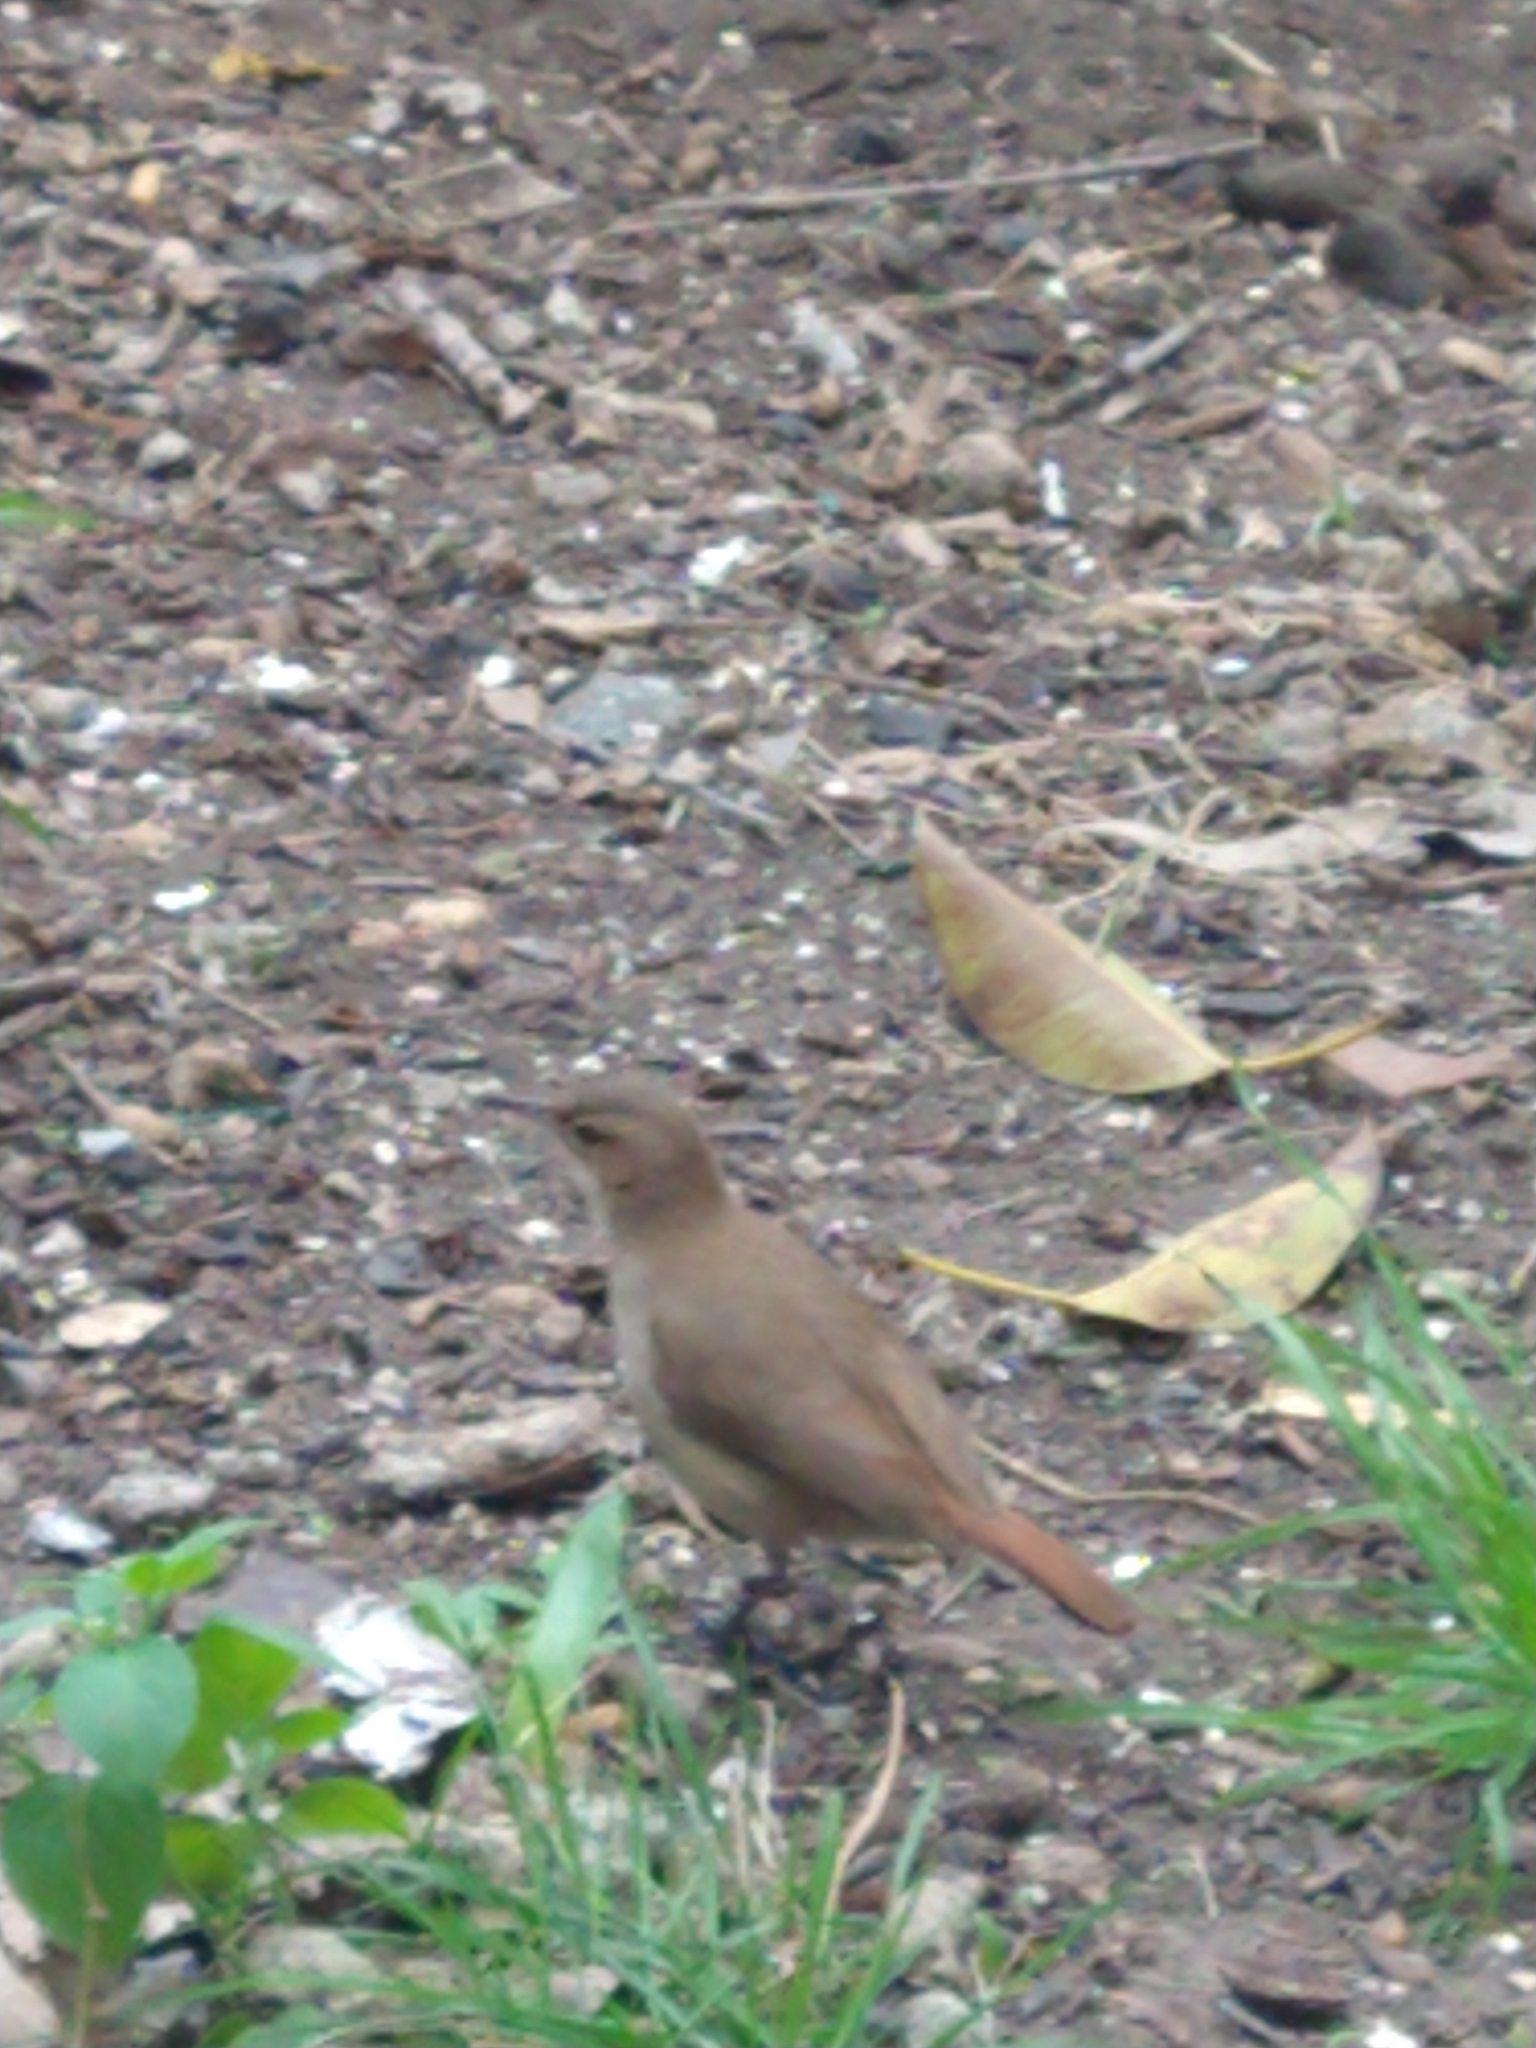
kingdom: Animalia
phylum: Chordata
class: Aves
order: Passeriformes
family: Furnariidae
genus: Furnarius
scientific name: Furnarius rufus
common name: Rufous hornero
